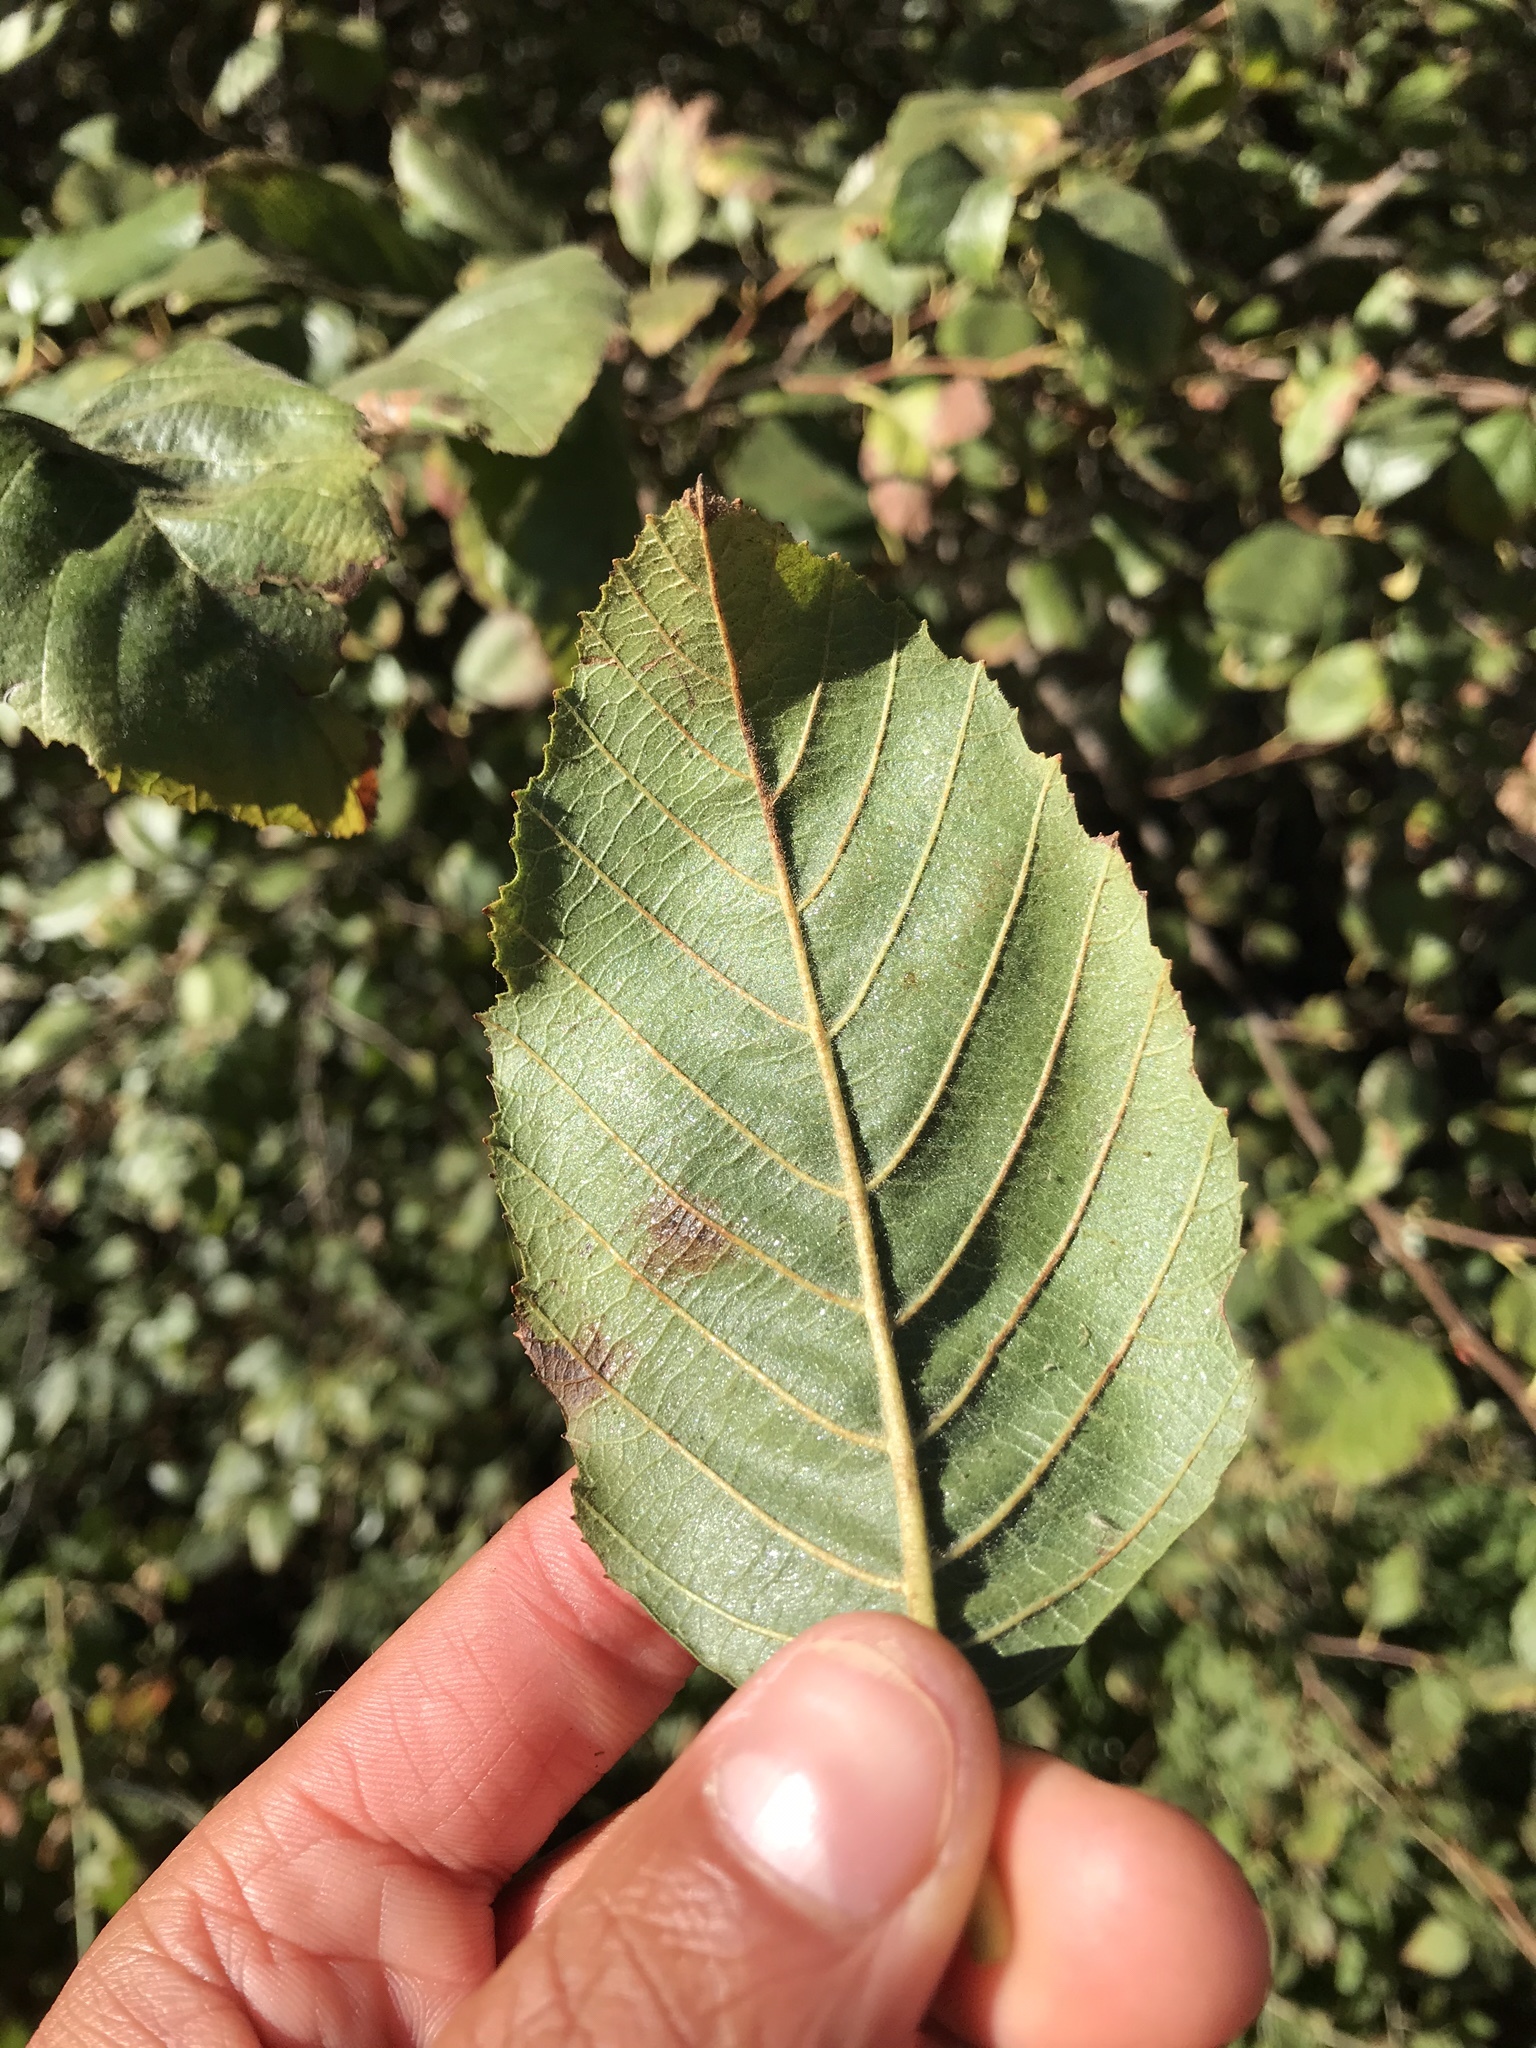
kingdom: Plantae
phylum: Tracheophyta
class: Magnoliopsida
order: Fagales
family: Betulaceae
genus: Alnus
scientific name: Alnus rhombifolia
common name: California alder
